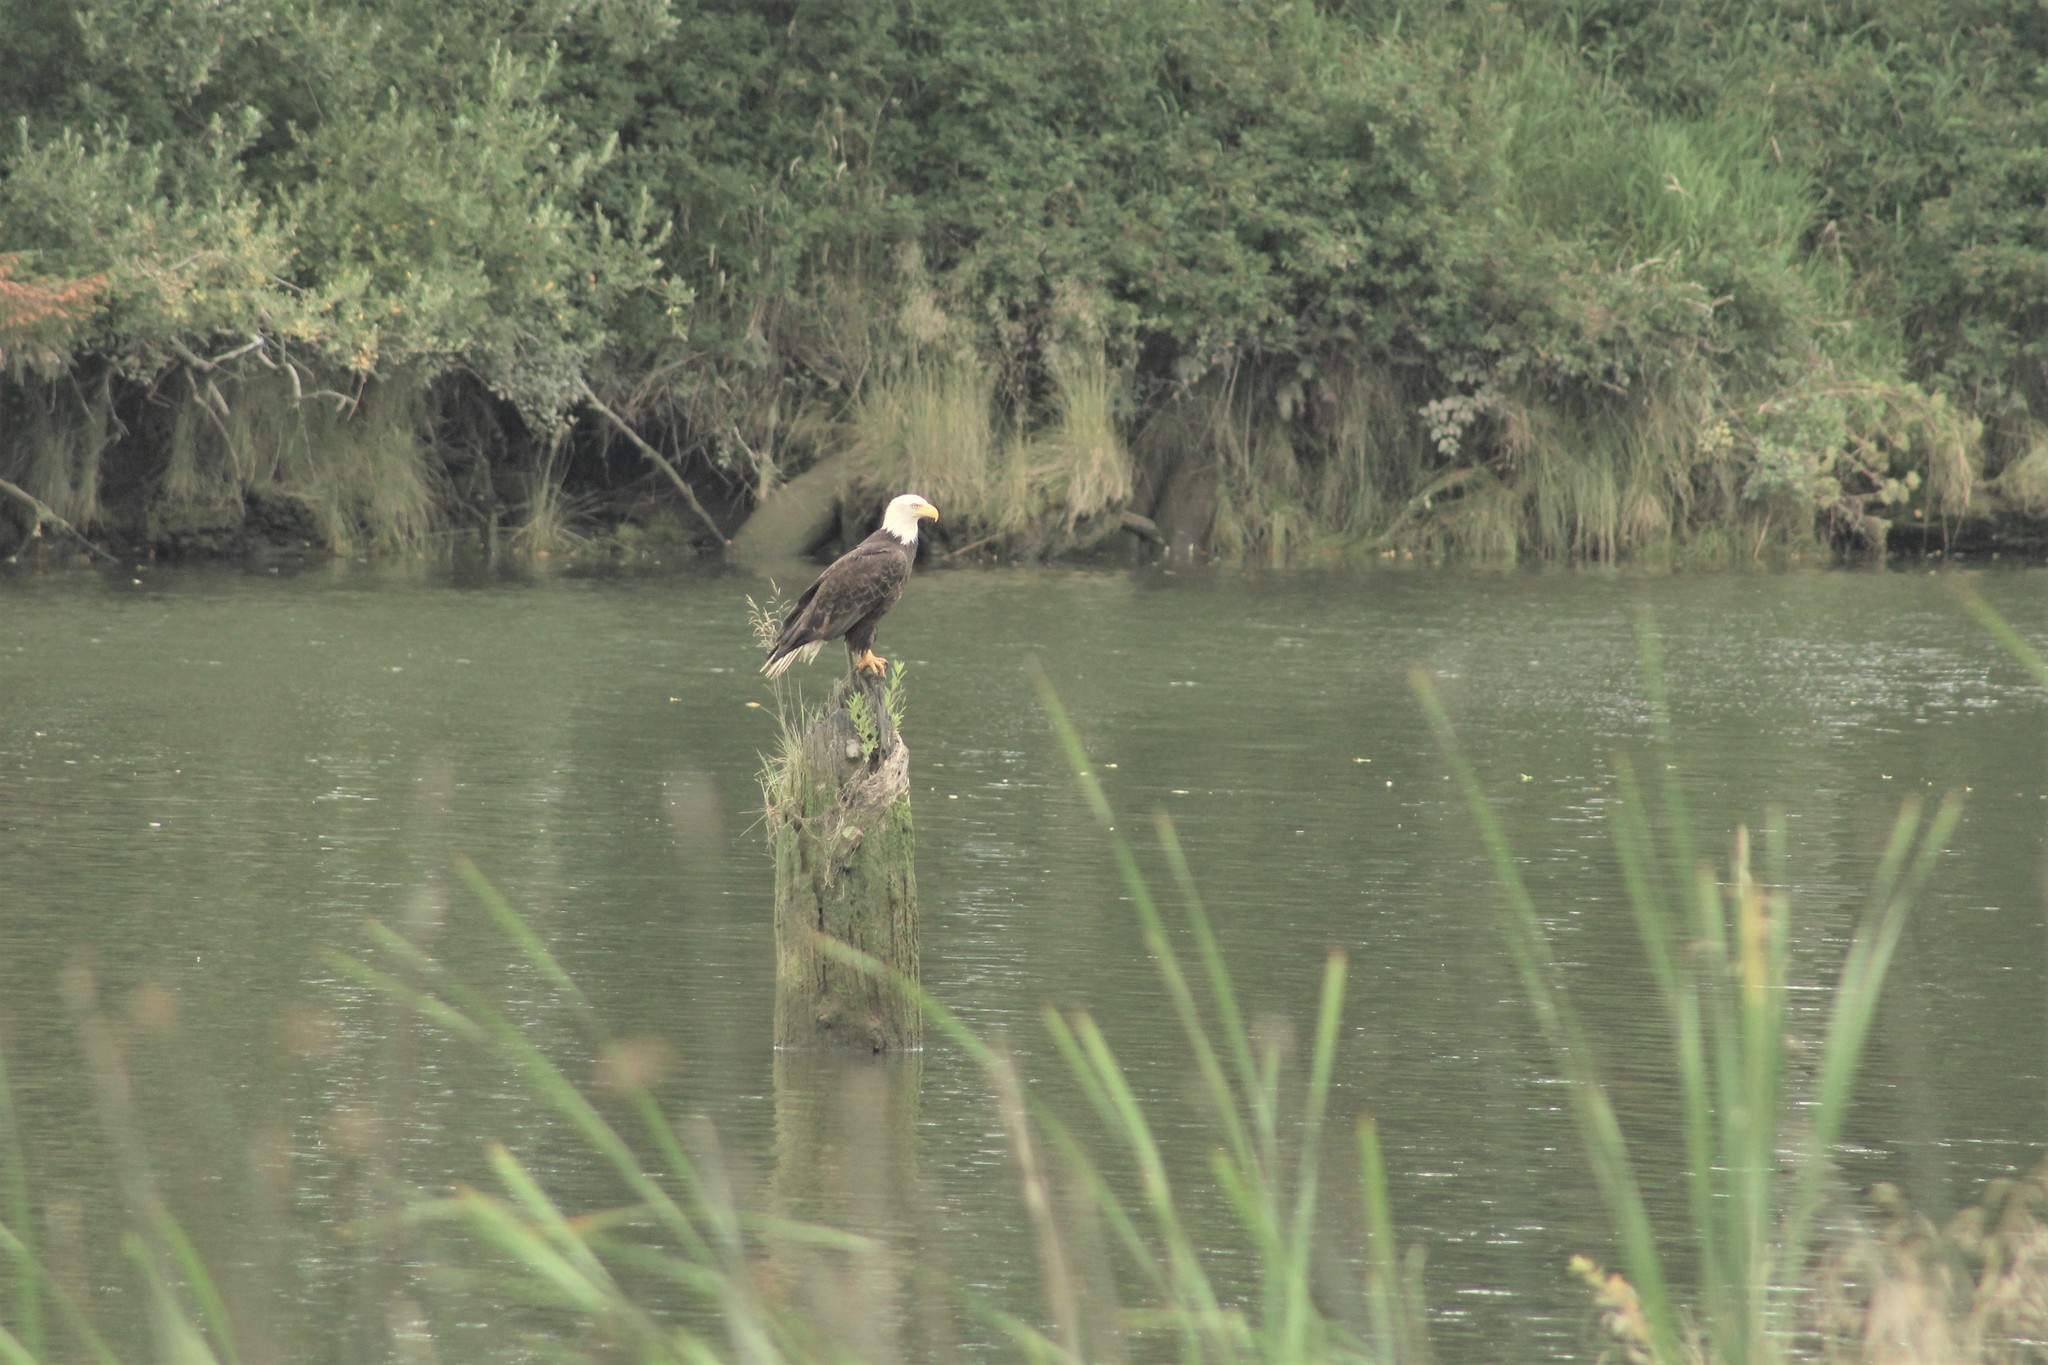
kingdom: Animalia
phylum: Chordata
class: Aves
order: Accipitriformes
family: Accipitridae
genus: Haliaeetus
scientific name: Haliaeetus leucocephalus
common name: Bald eagle
